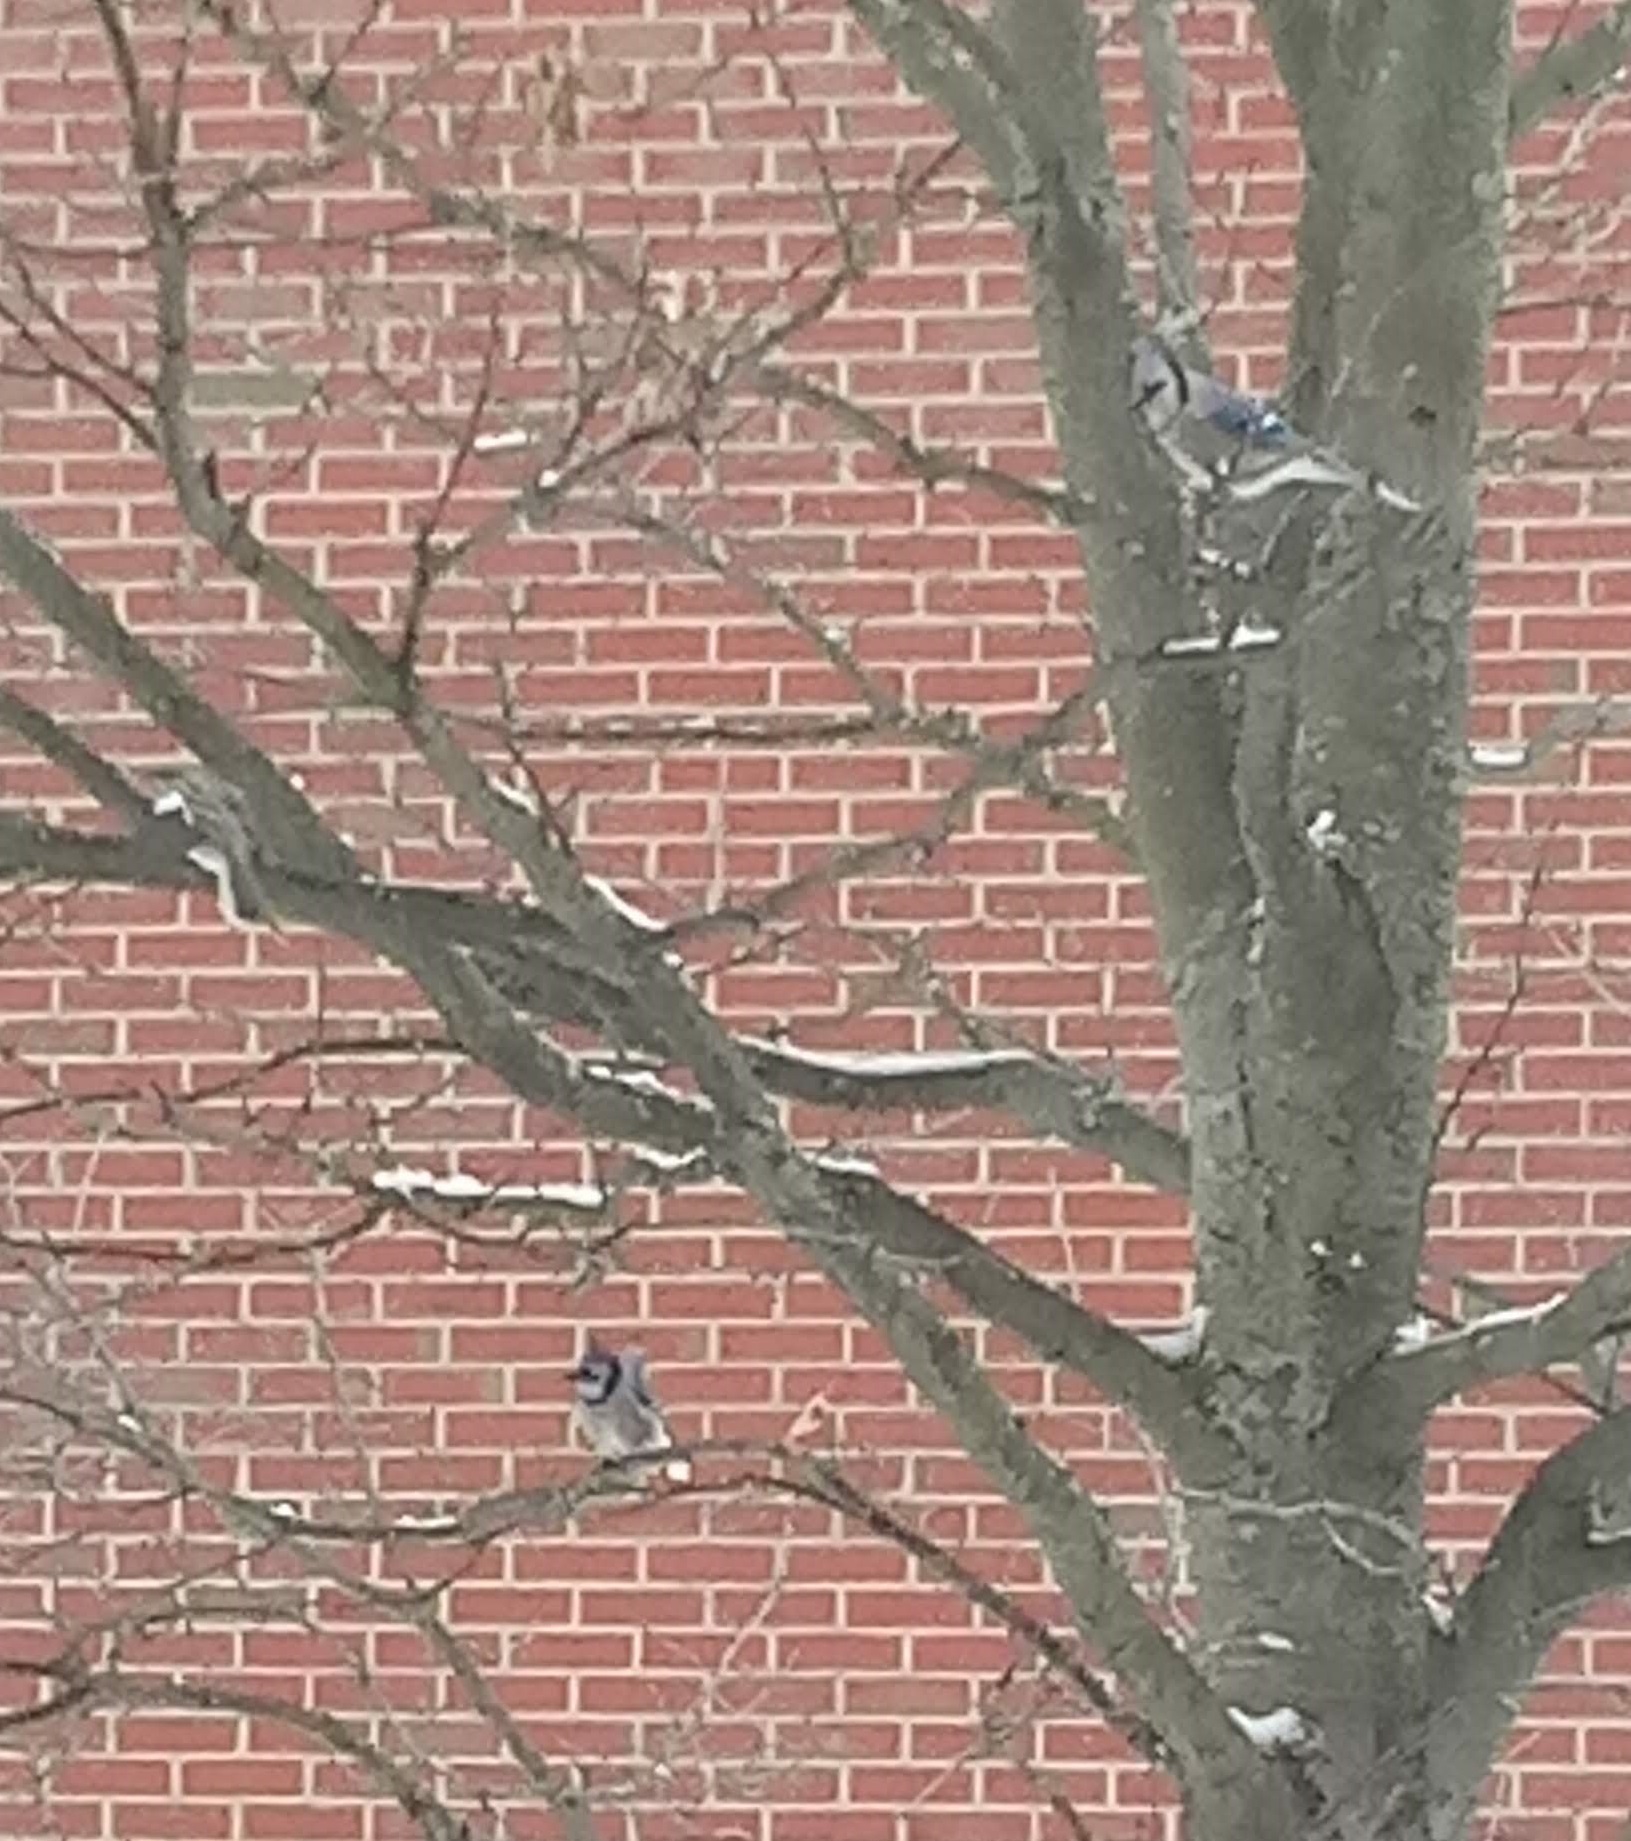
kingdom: Animalia
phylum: Chordata
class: Aves
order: Passeriformes
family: Corvidae
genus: Cyanocitta
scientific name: Cyanocitta cristata
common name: Blue jay
